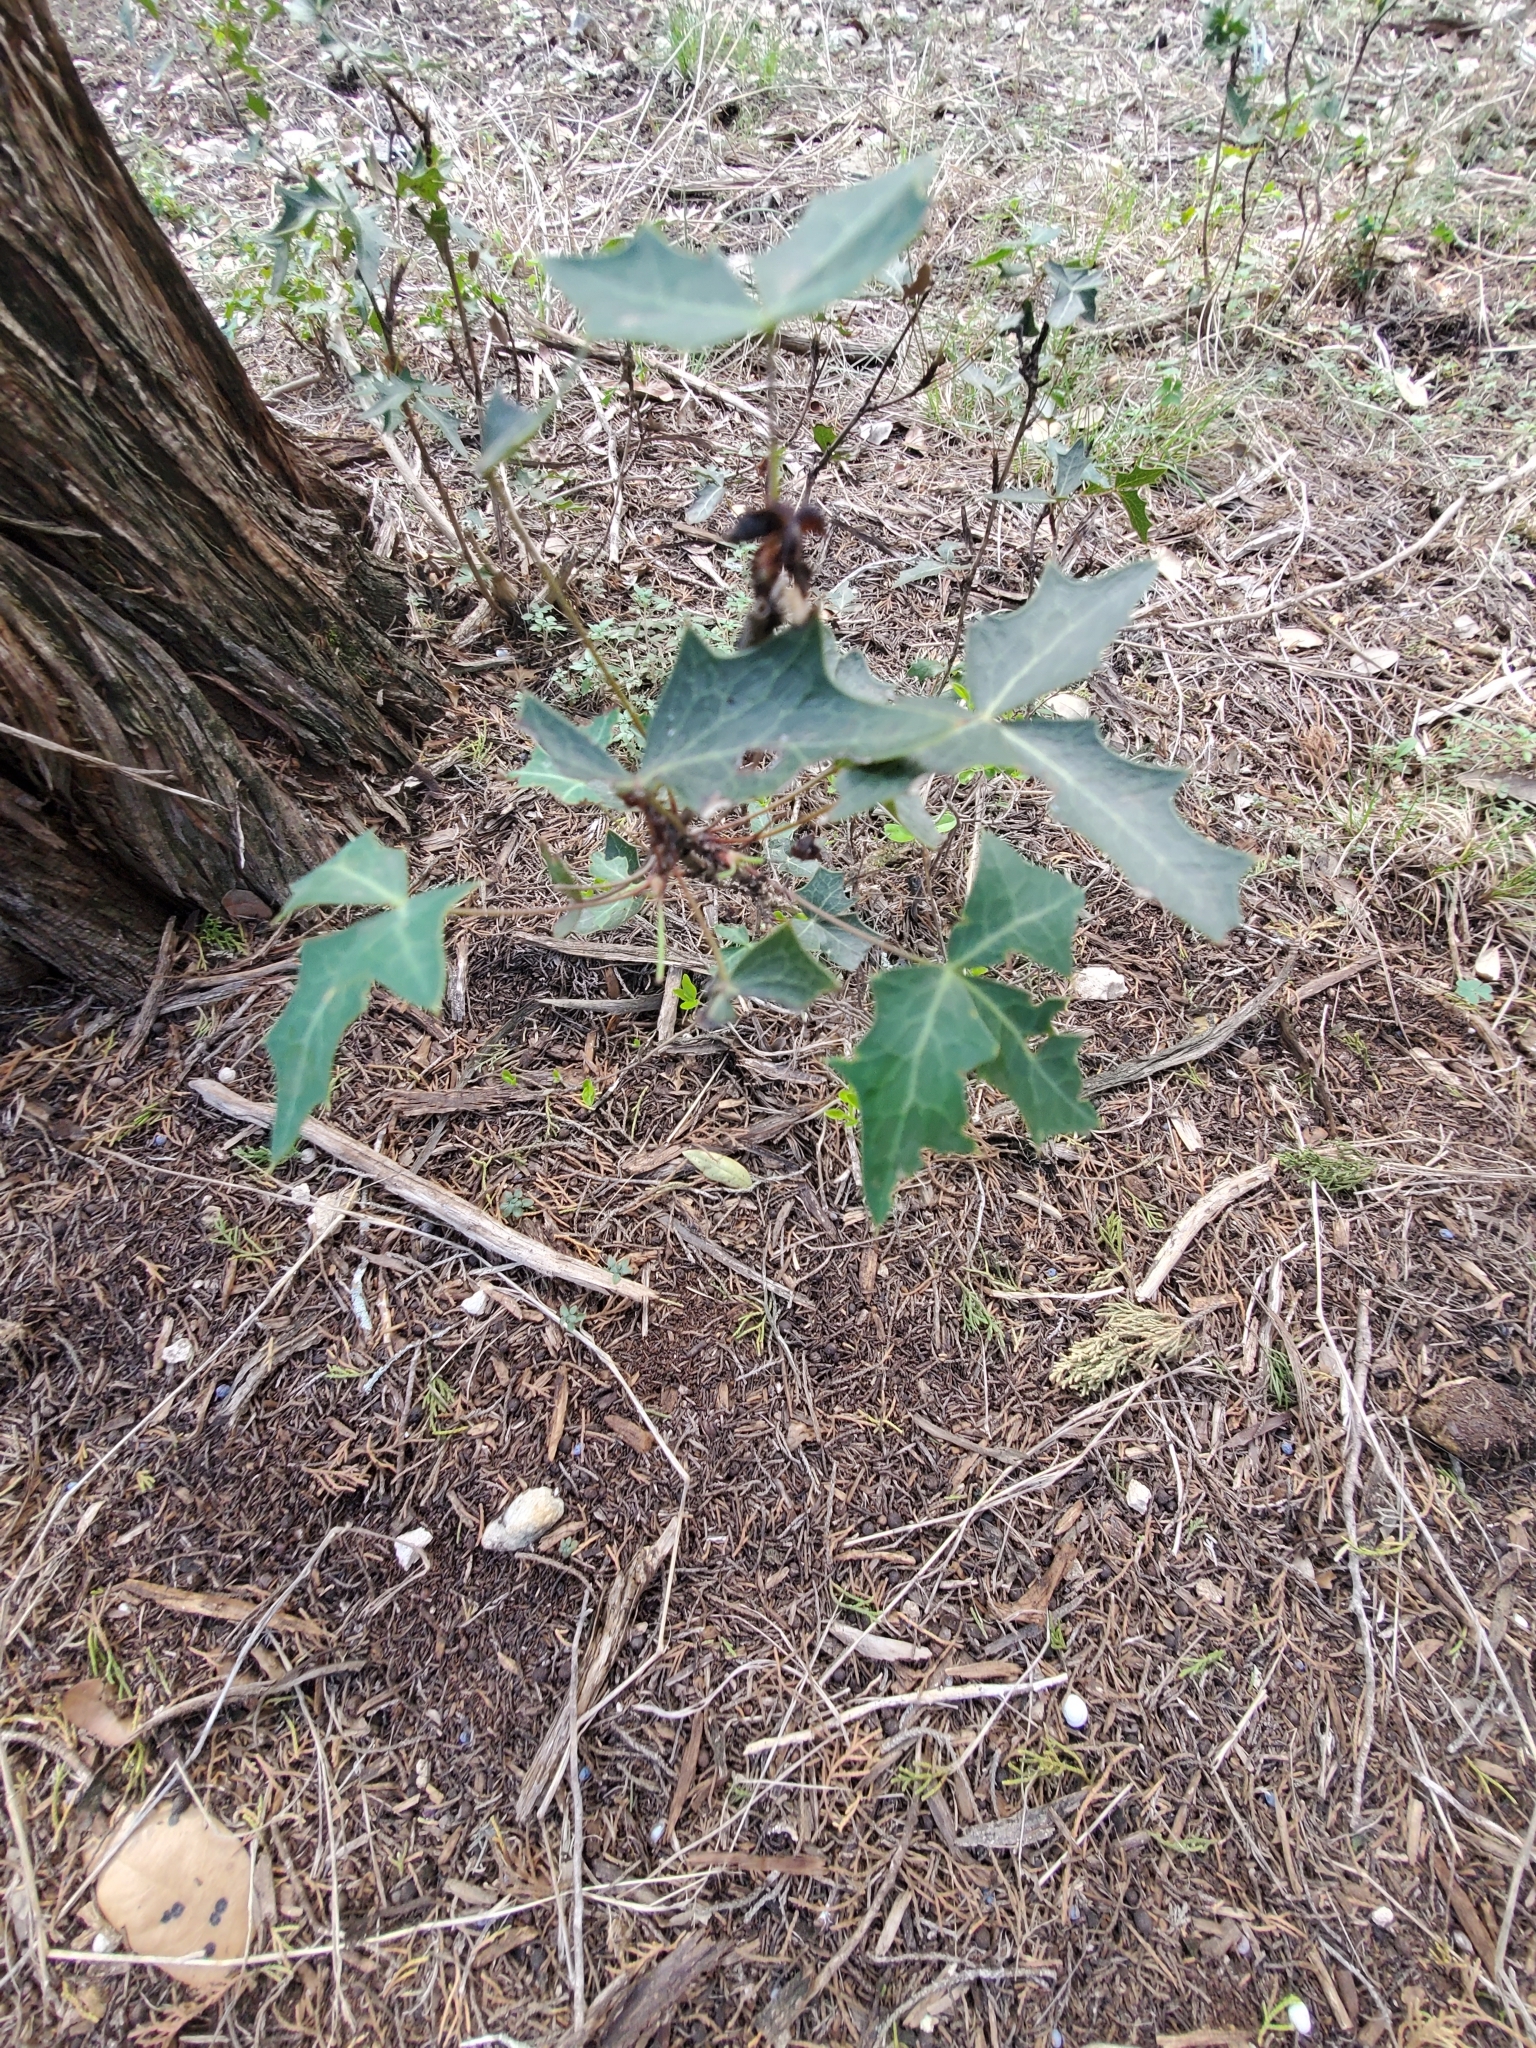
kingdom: Plantae
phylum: Tracheophyta
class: Magnoliopsida
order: Ranunculales
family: Berberidaceae
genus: Alloberberis
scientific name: Alloberberis trifoliolata
